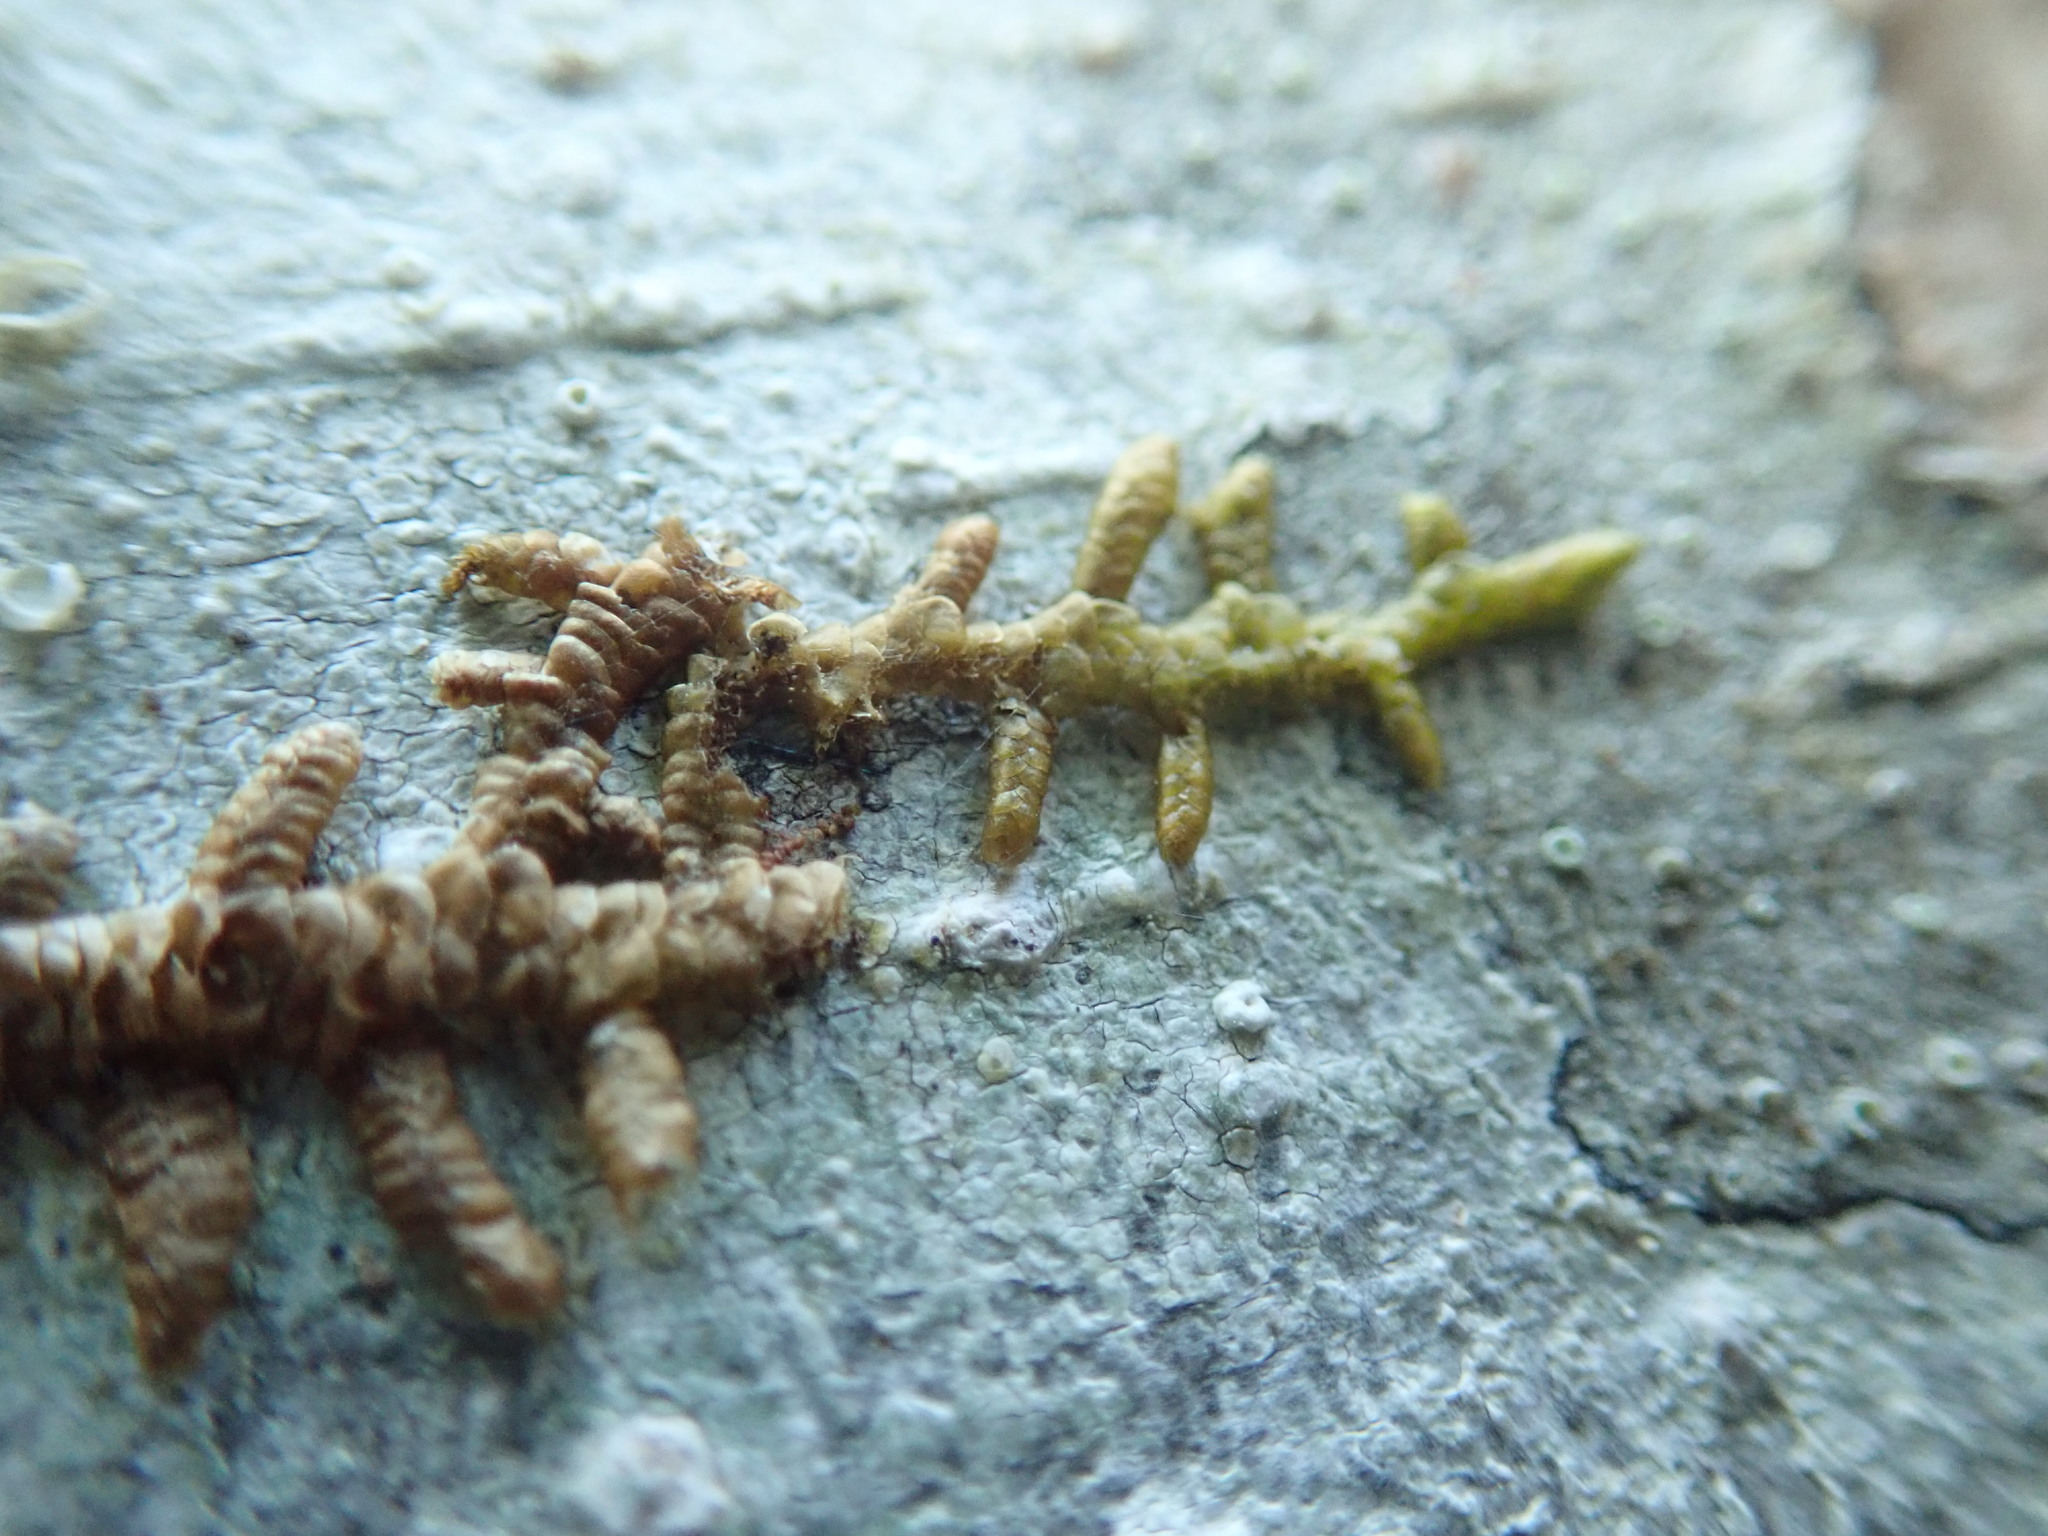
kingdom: Plantae
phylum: Marchantiophyta
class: Jungermanniopsida
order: Porellales
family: Porellaceae
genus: Porella
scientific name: Porella navicularis
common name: Tree ruffle liverwort
